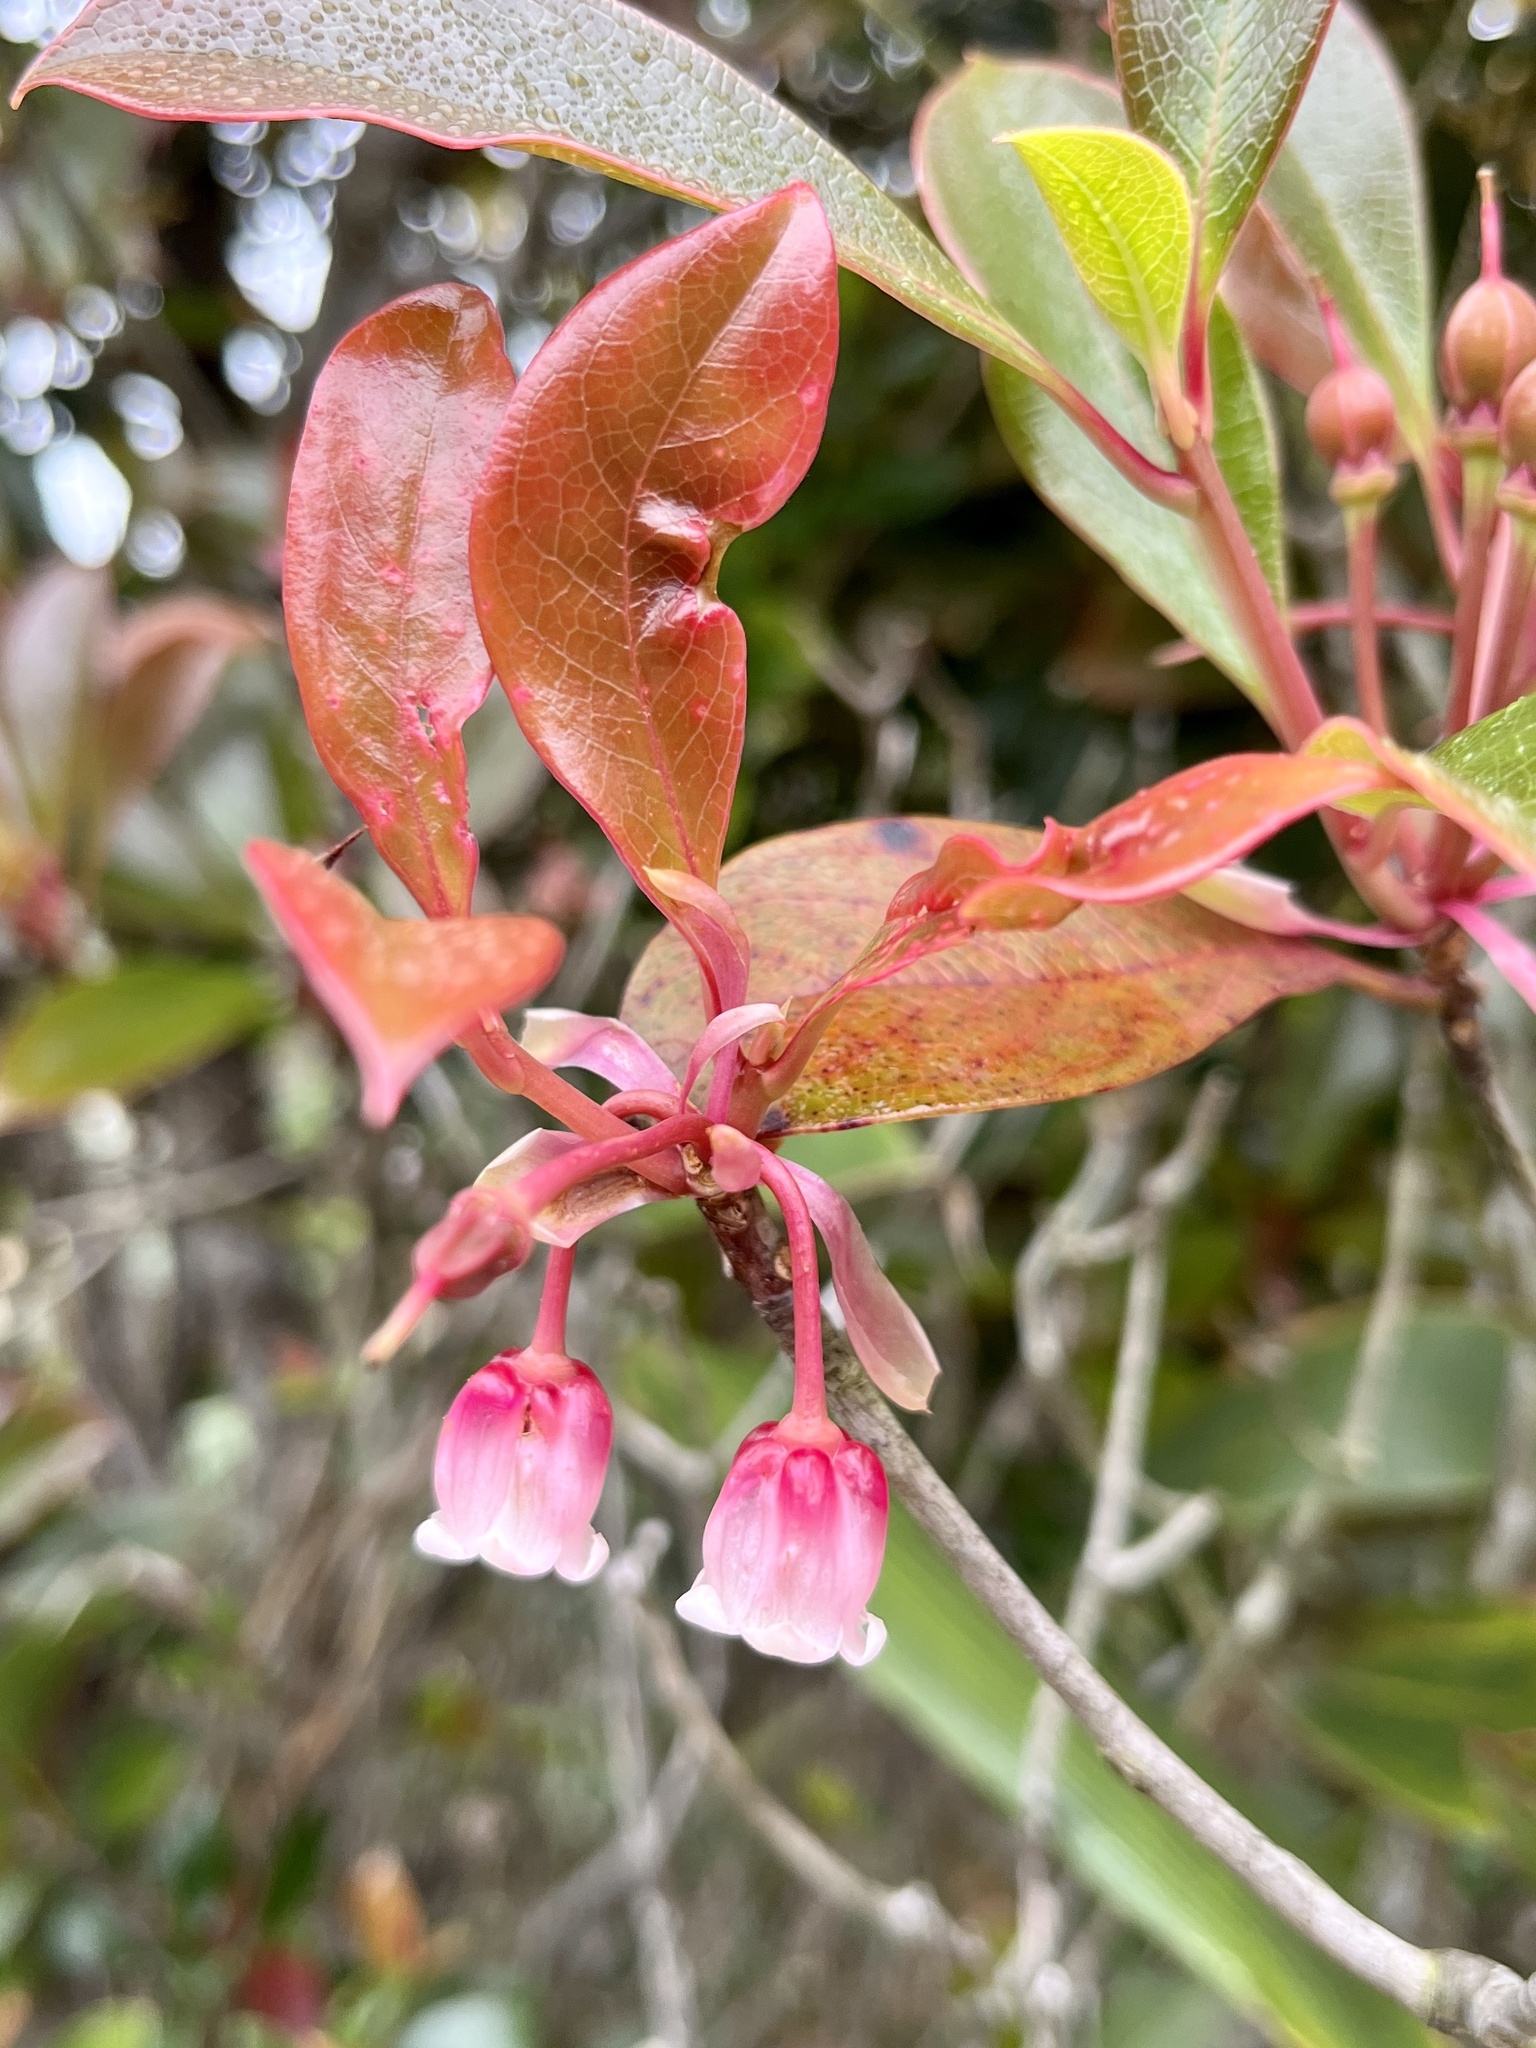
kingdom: Plantae
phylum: Tracheophyta
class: Magnoliopsida
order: Ericales
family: Ericaceae
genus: Enkianthus
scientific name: Enkianthus quinqueflorus
